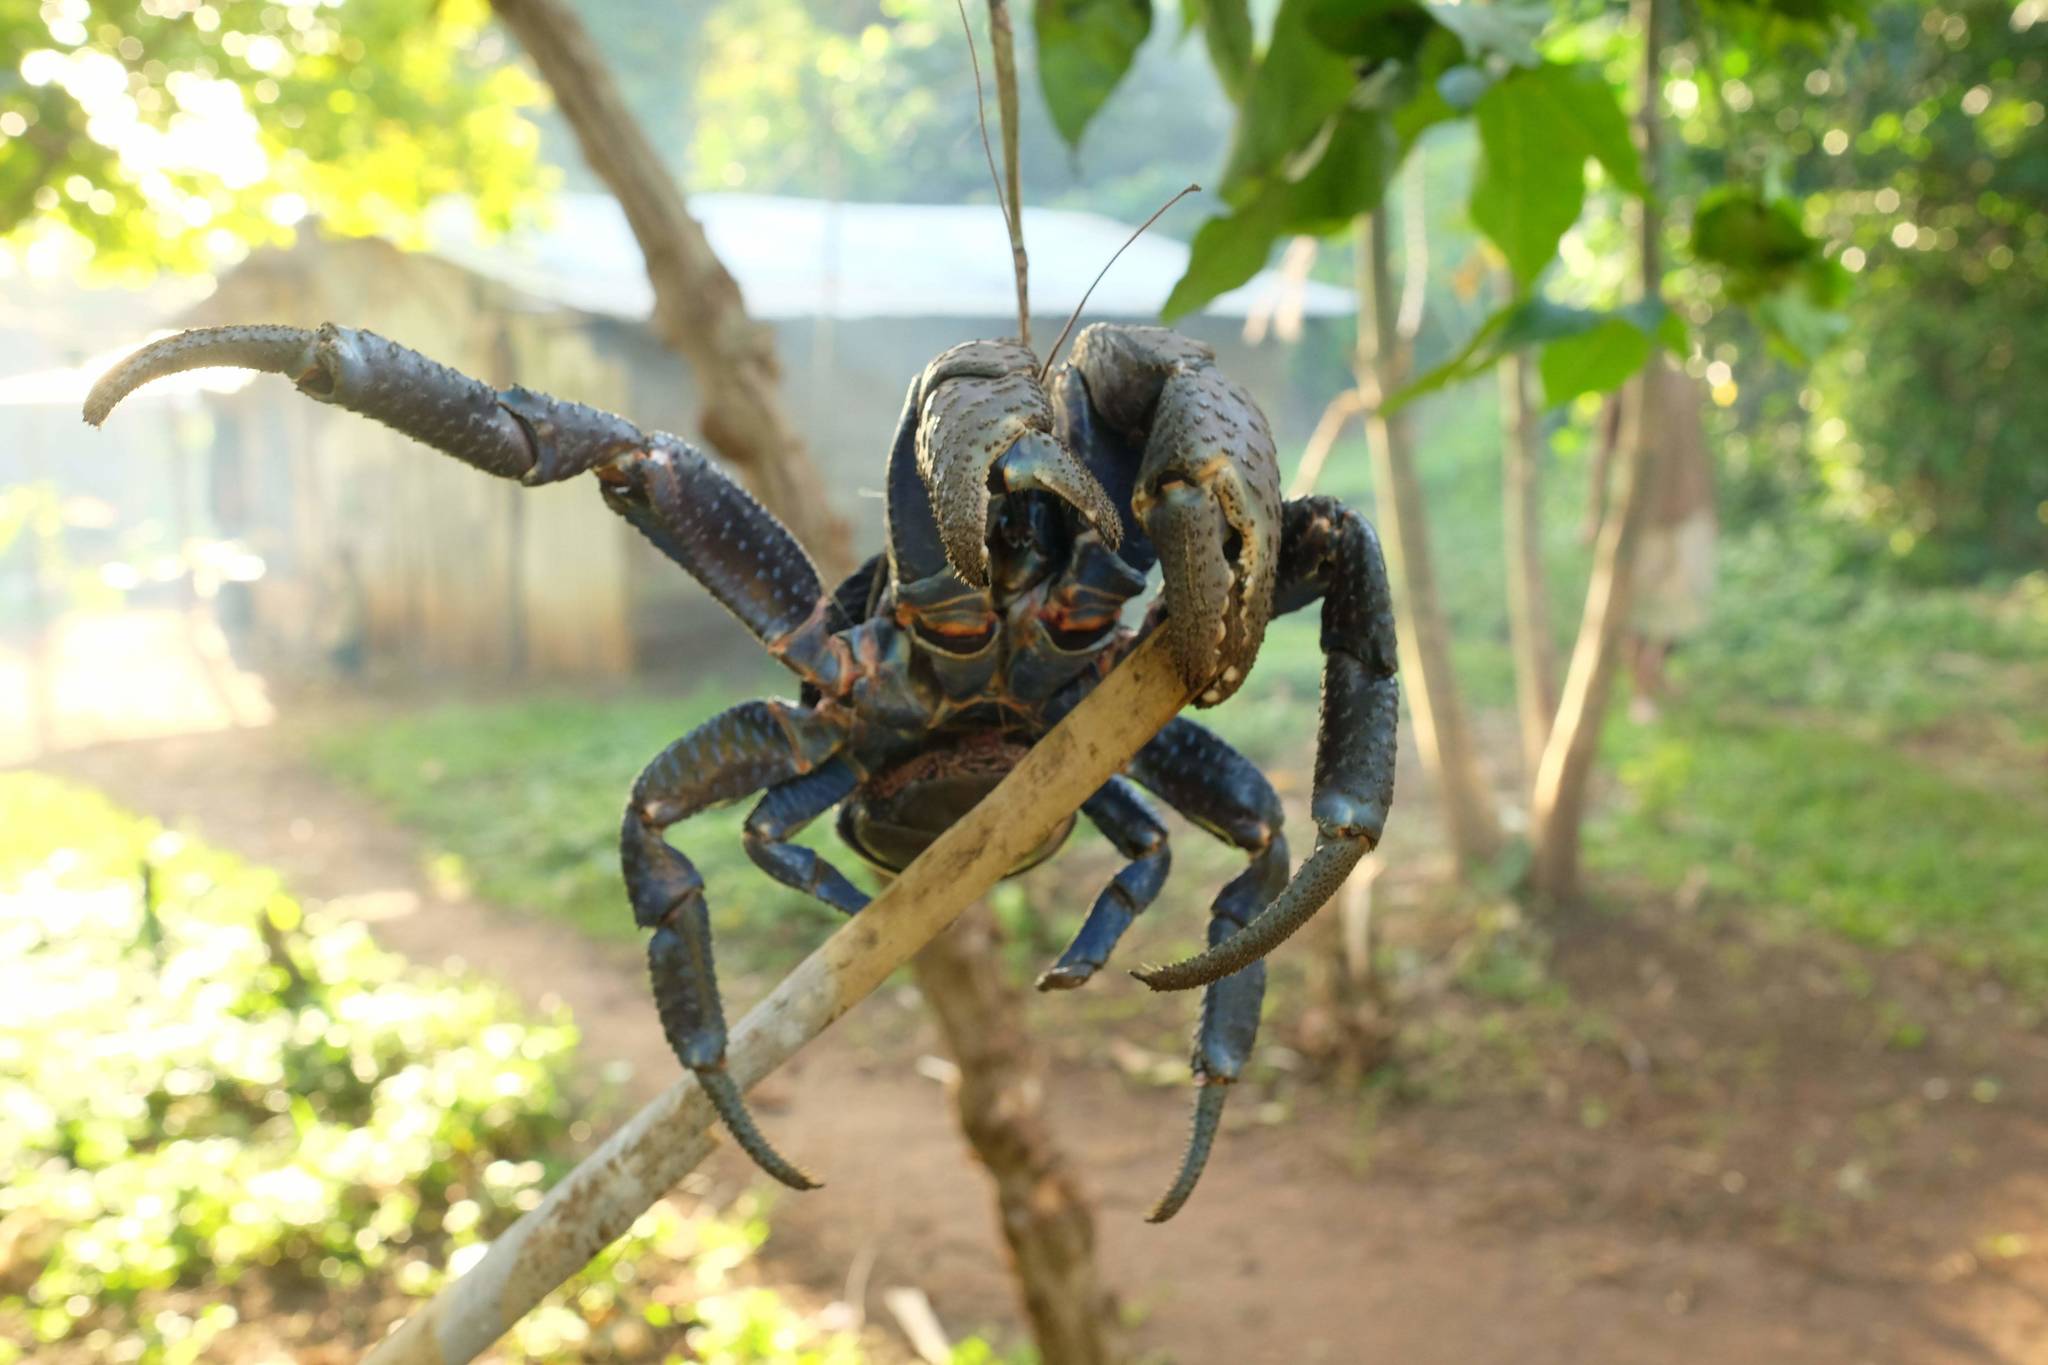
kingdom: Animalia
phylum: Arthropoda
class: Malacostraca
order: Decapoda
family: Coenobitidae
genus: Birgus
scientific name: Birgus latro
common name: Coconut crab
